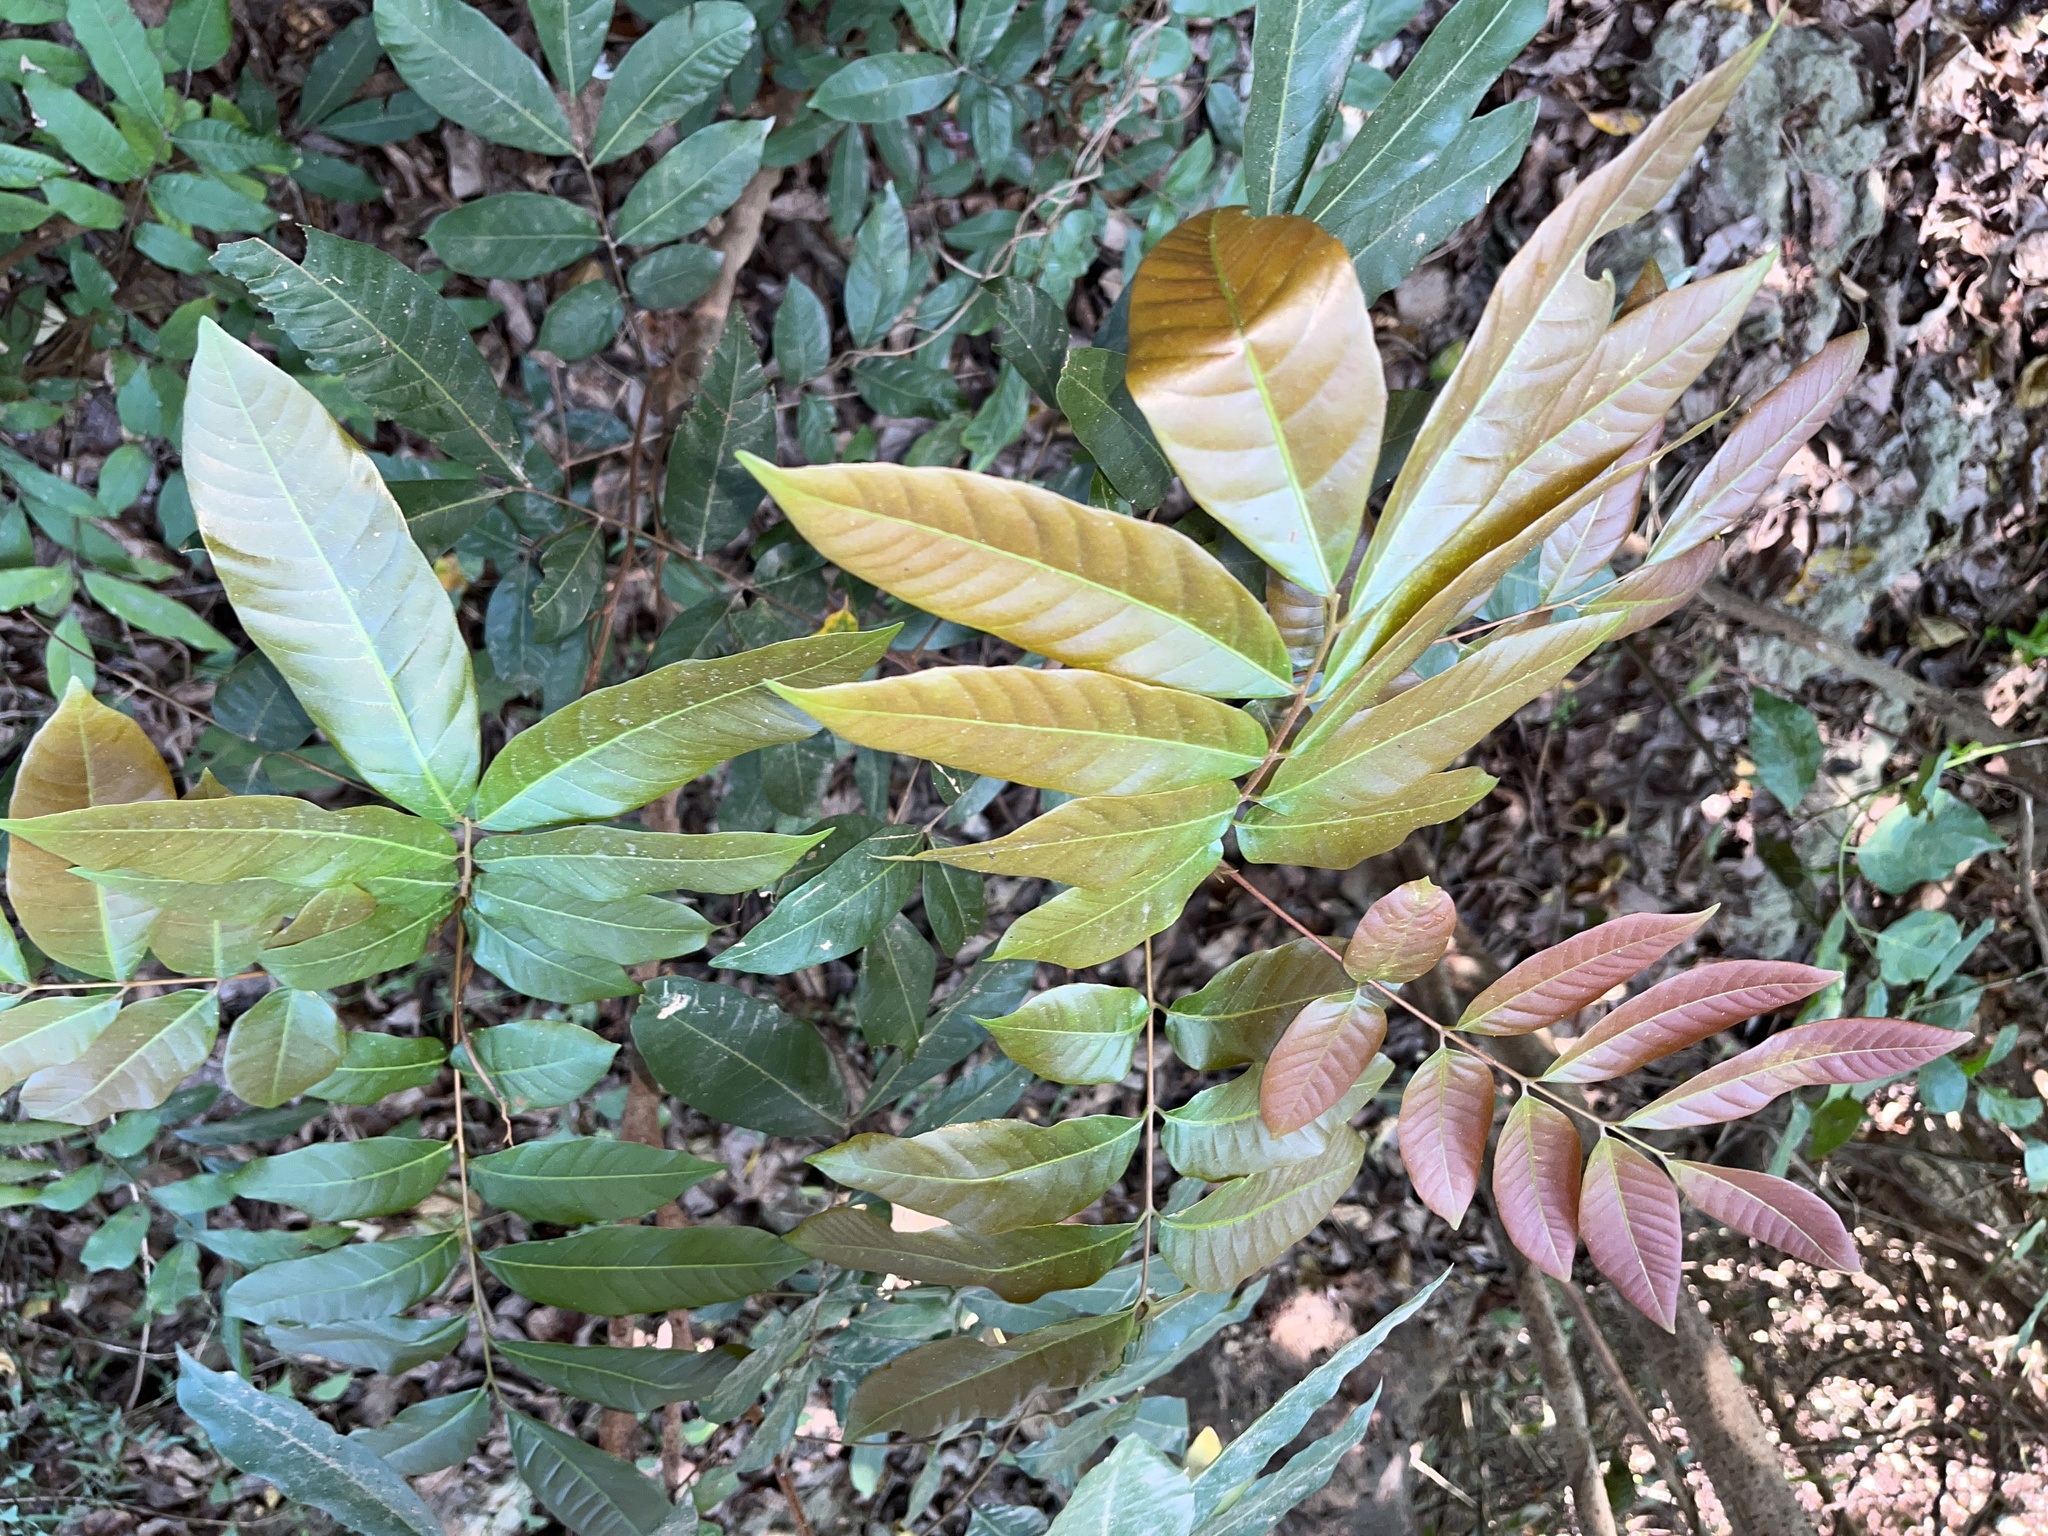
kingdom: Plantae
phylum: Tracheophyta
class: Magnoliopsida
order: Sapindales
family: Sapindaceae
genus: Dimocarpus
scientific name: Dimocarpus longan
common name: Longan
